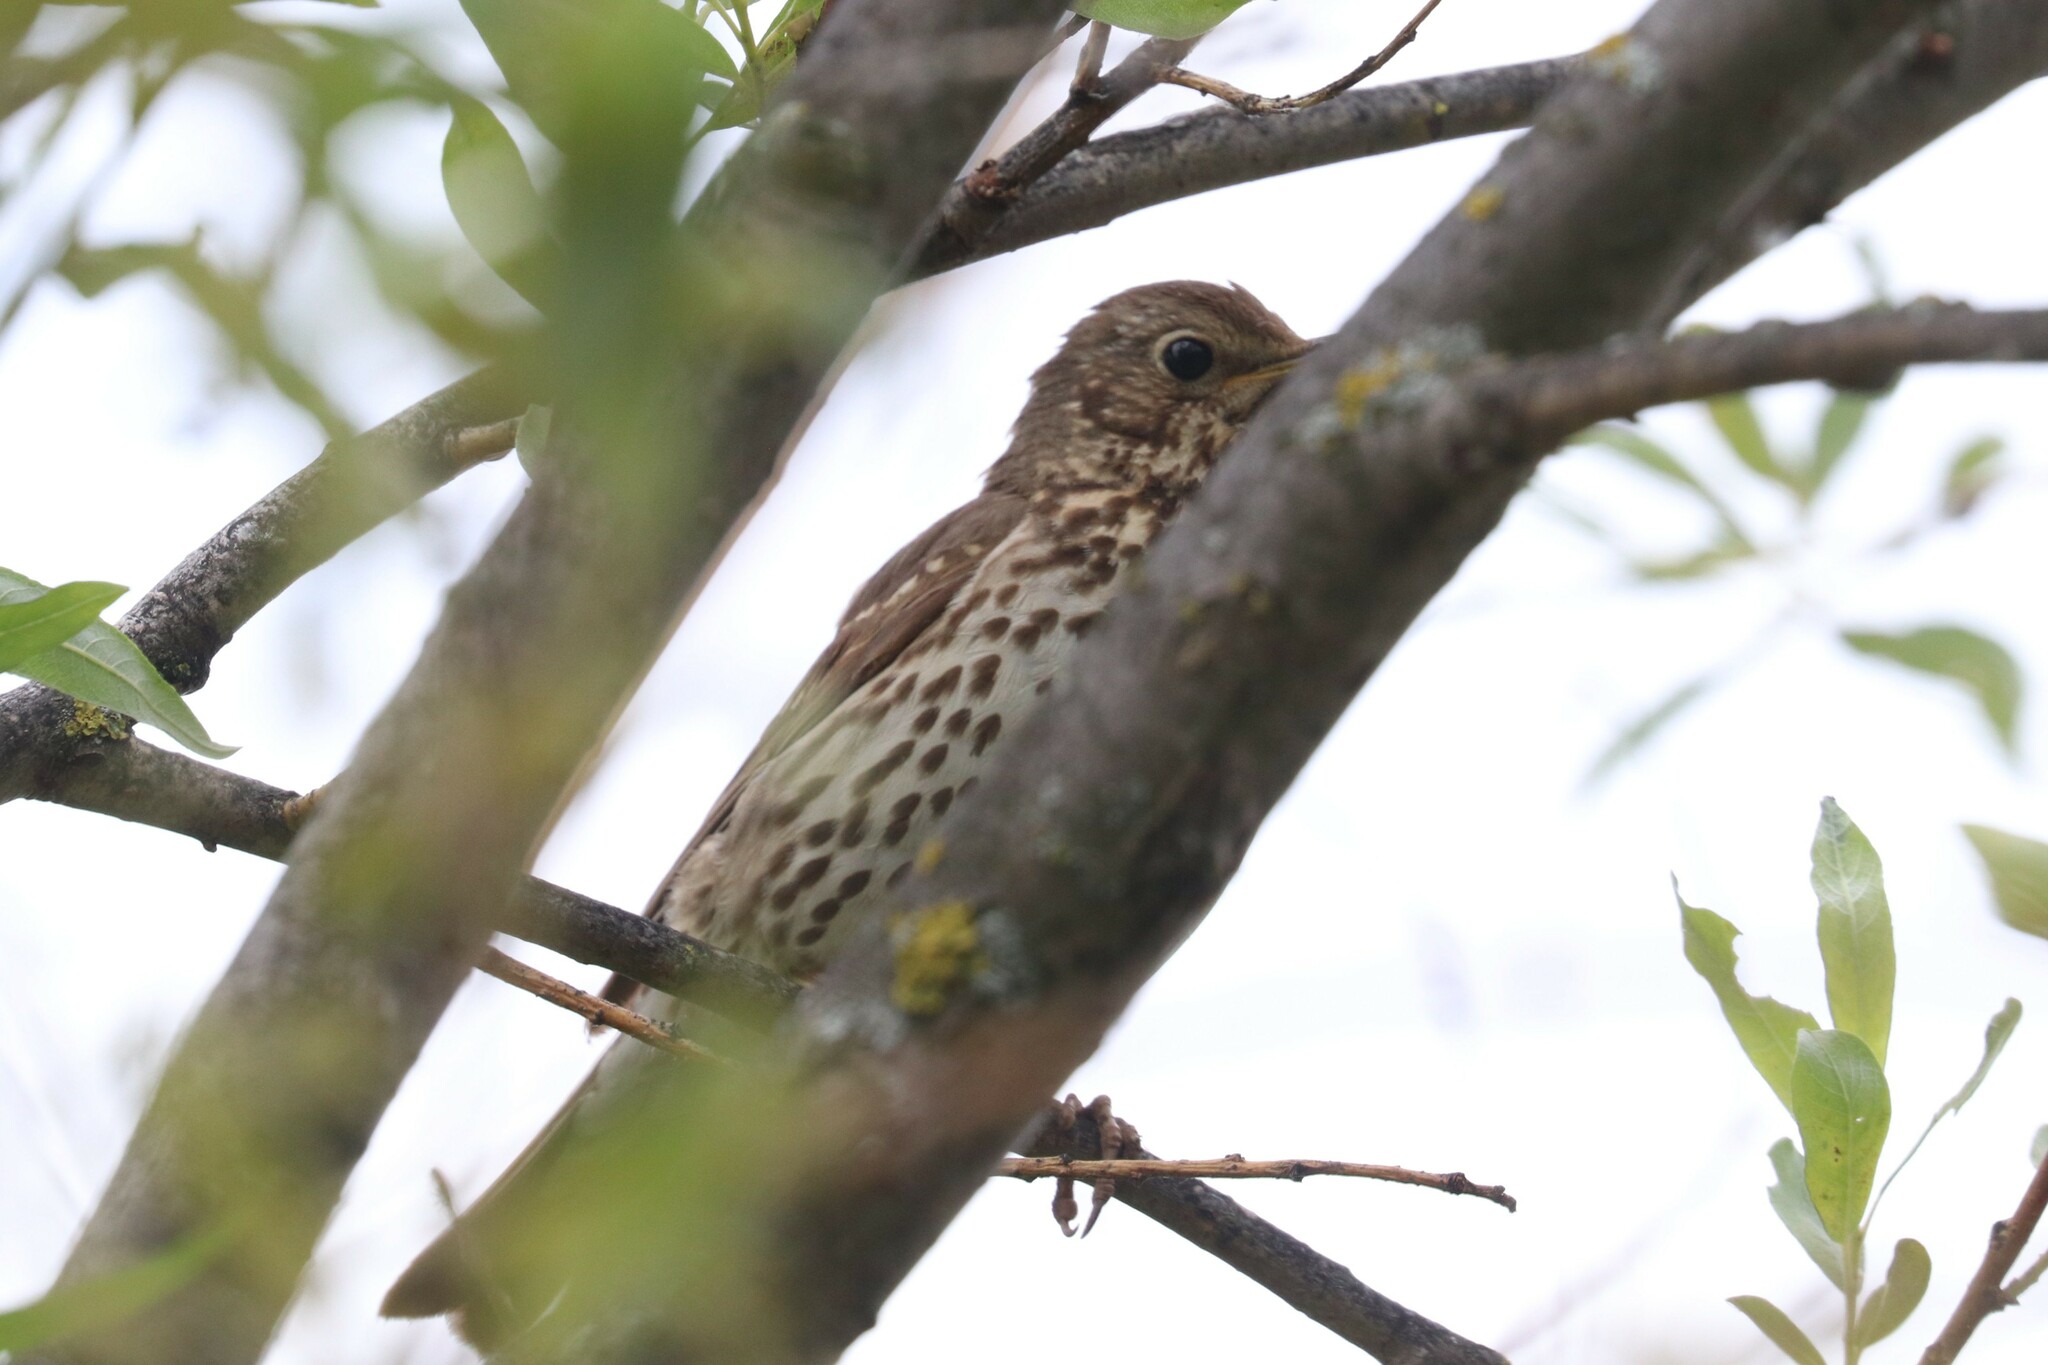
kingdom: Animalia
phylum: Chordata
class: Aves
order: Passeriformes
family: Turdidae
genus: Turdus
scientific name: Turdus philomelos
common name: Song thrush
